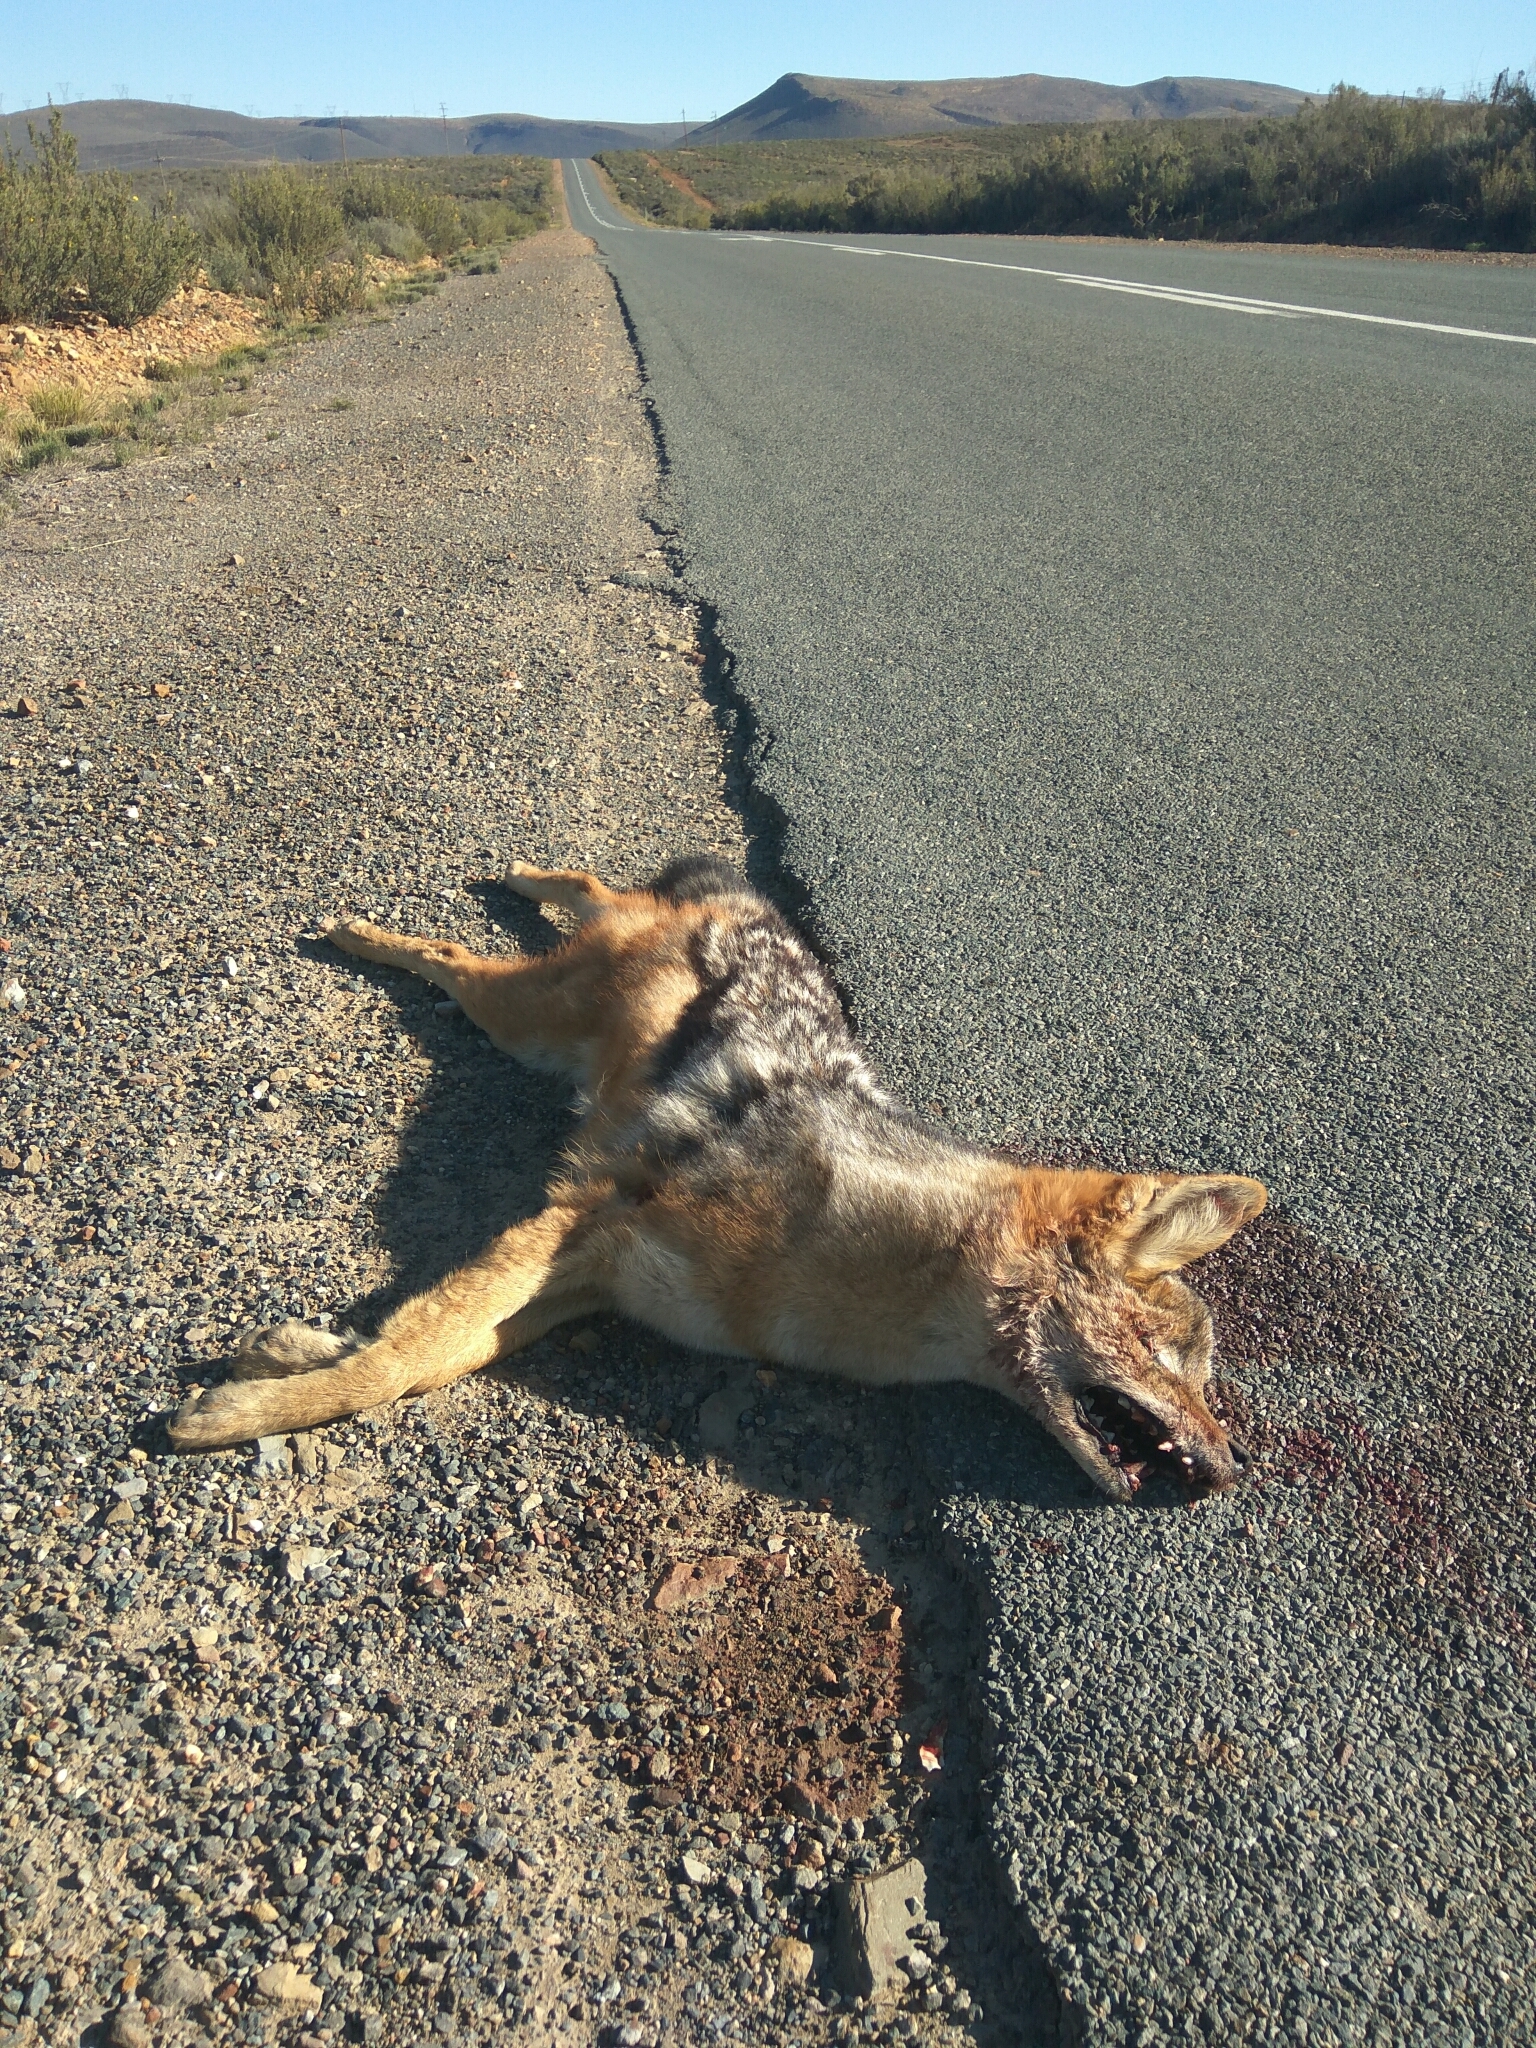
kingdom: Animalia
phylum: Chordata
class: Mammalia
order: Carnivora
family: Canidae
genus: Lupulella
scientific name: Lupulella
